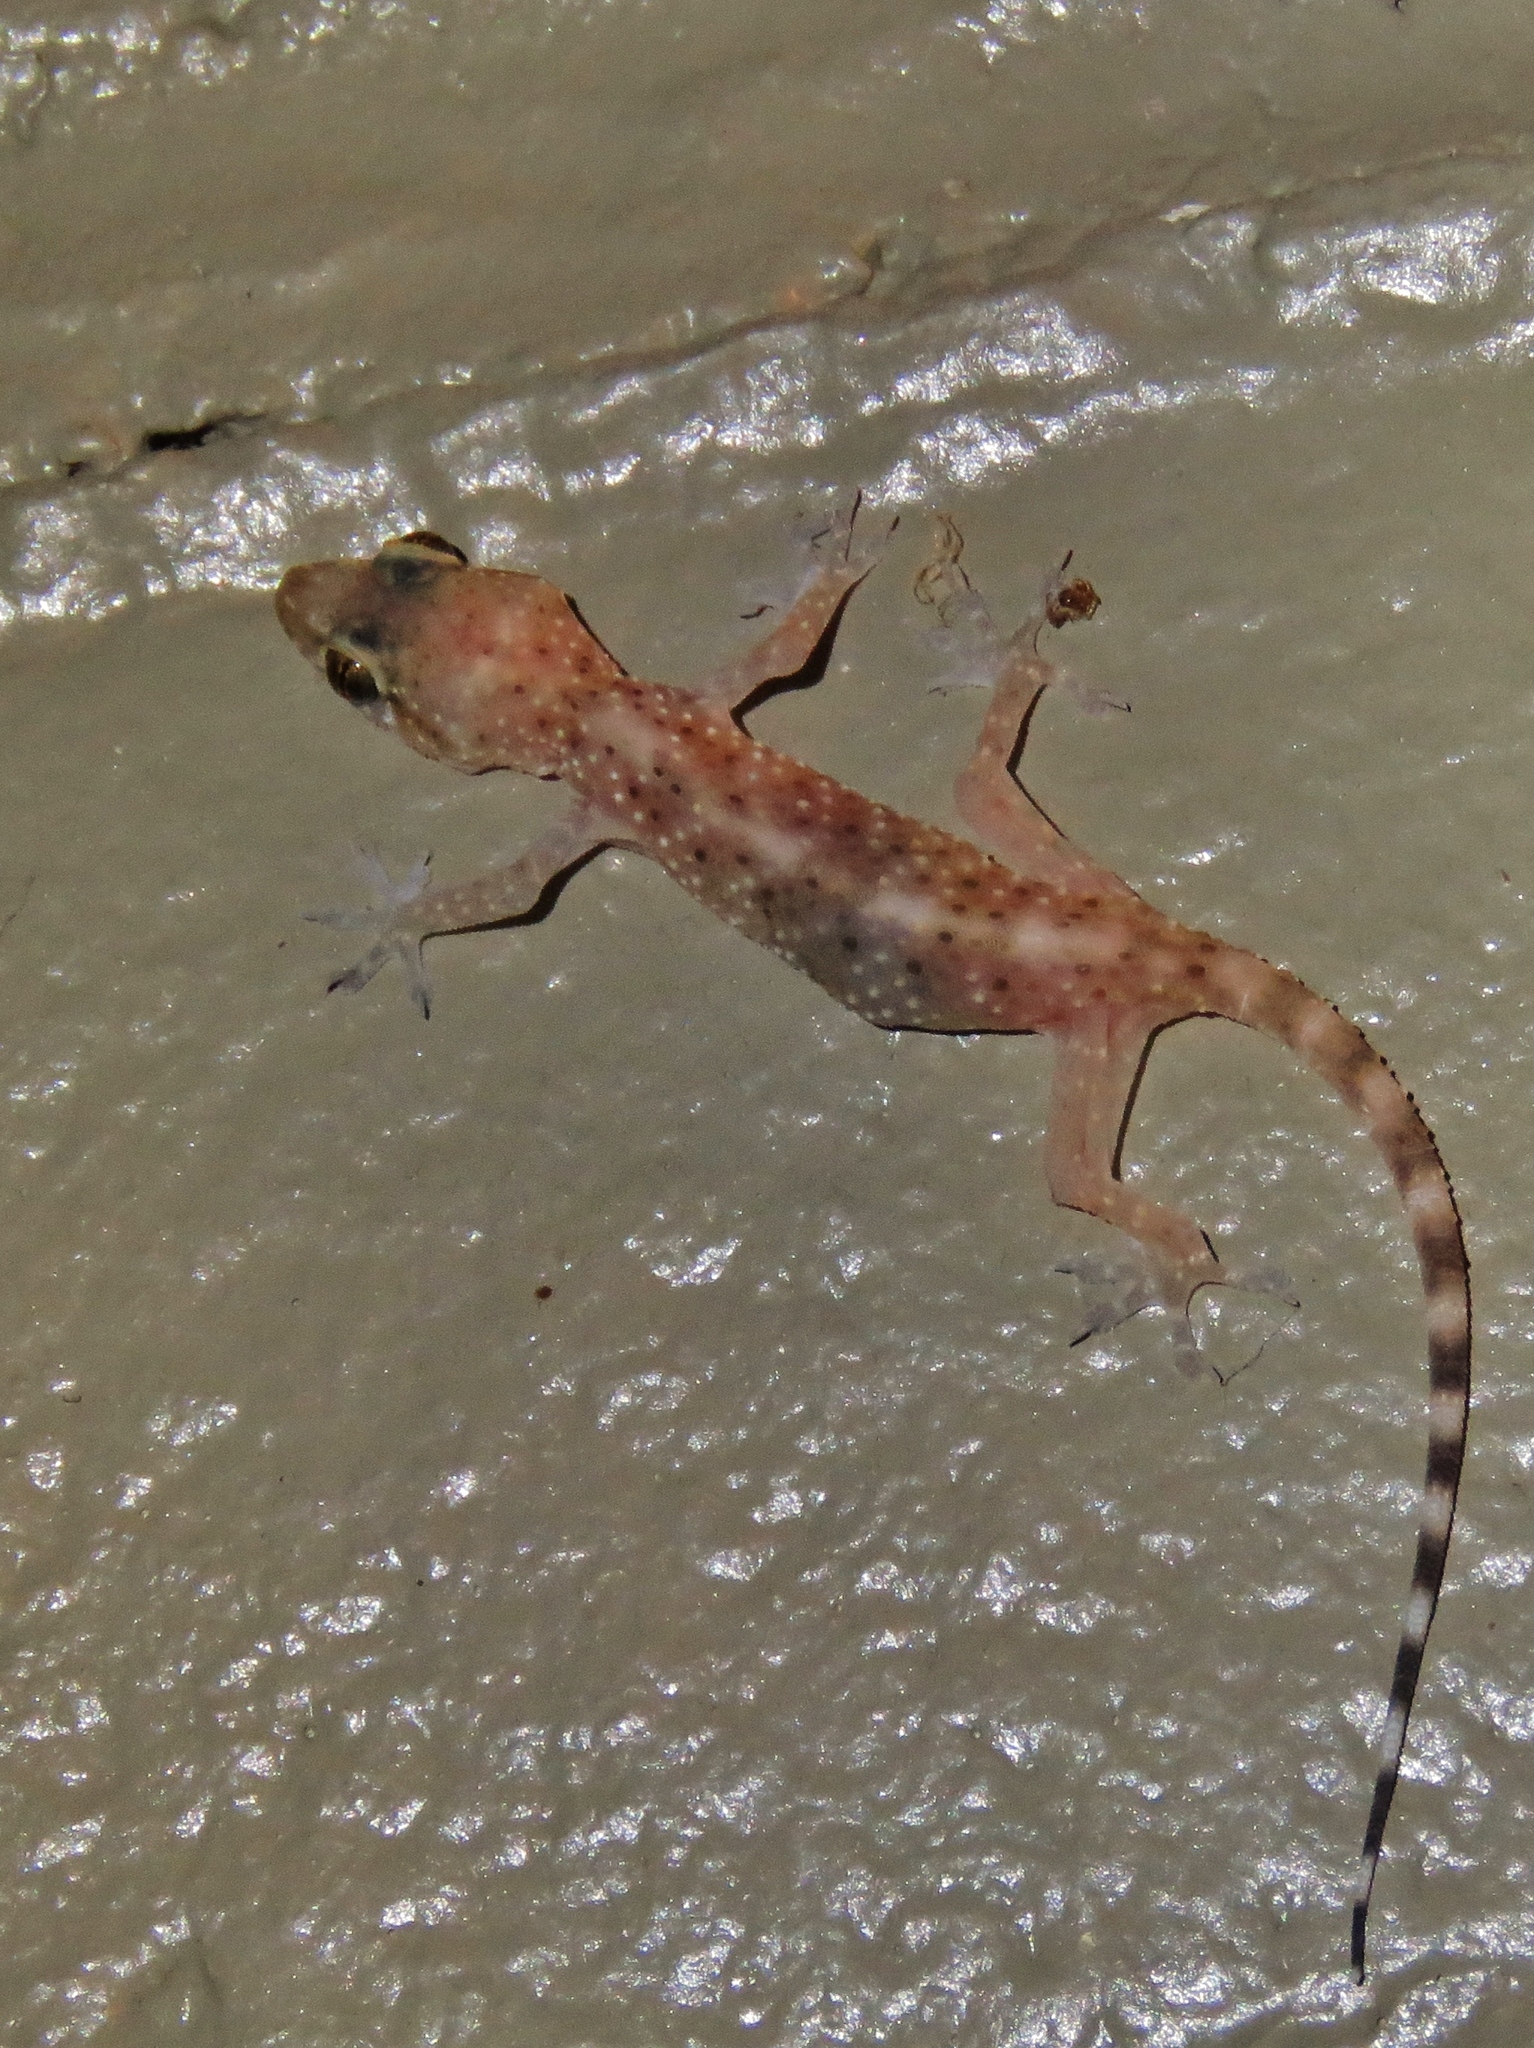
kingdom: Animalia
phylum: Chordata
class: Squamata
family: Gekkonidae
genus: Hemidactylus
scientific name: Hemidactylus turcicus
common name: Turkish gecko
